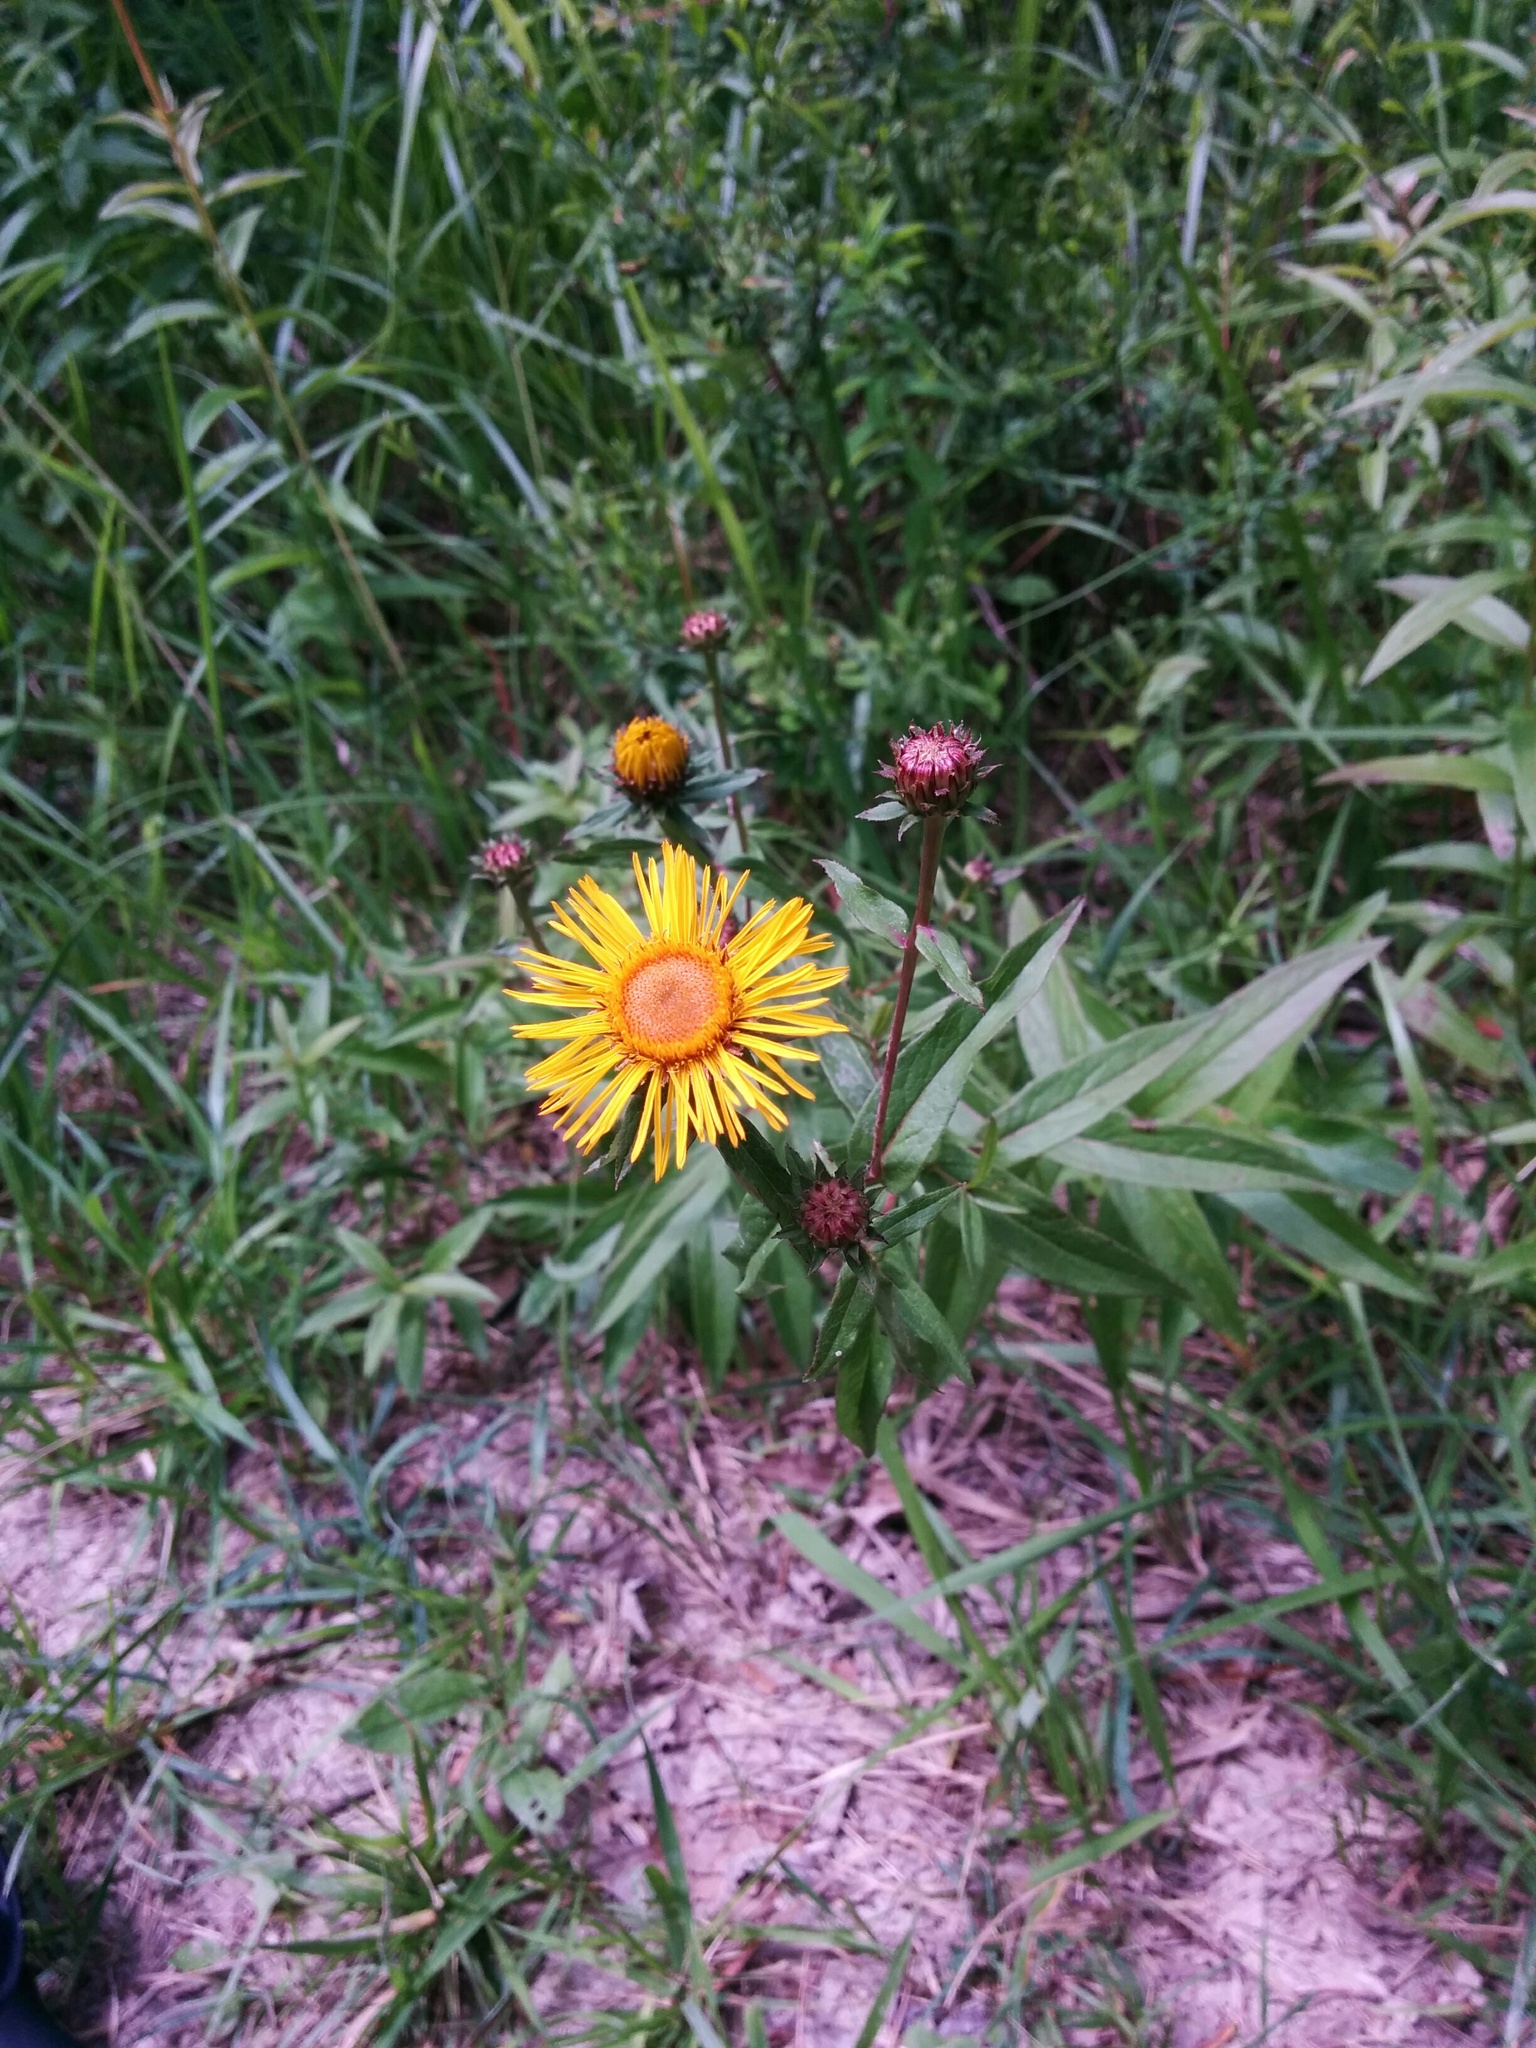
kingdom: Plantae
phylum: Tracheophyta
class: Magnoliopsida
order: Asterales
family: Asteraceae
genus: Pentanema
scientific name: Pentanema salicinum
